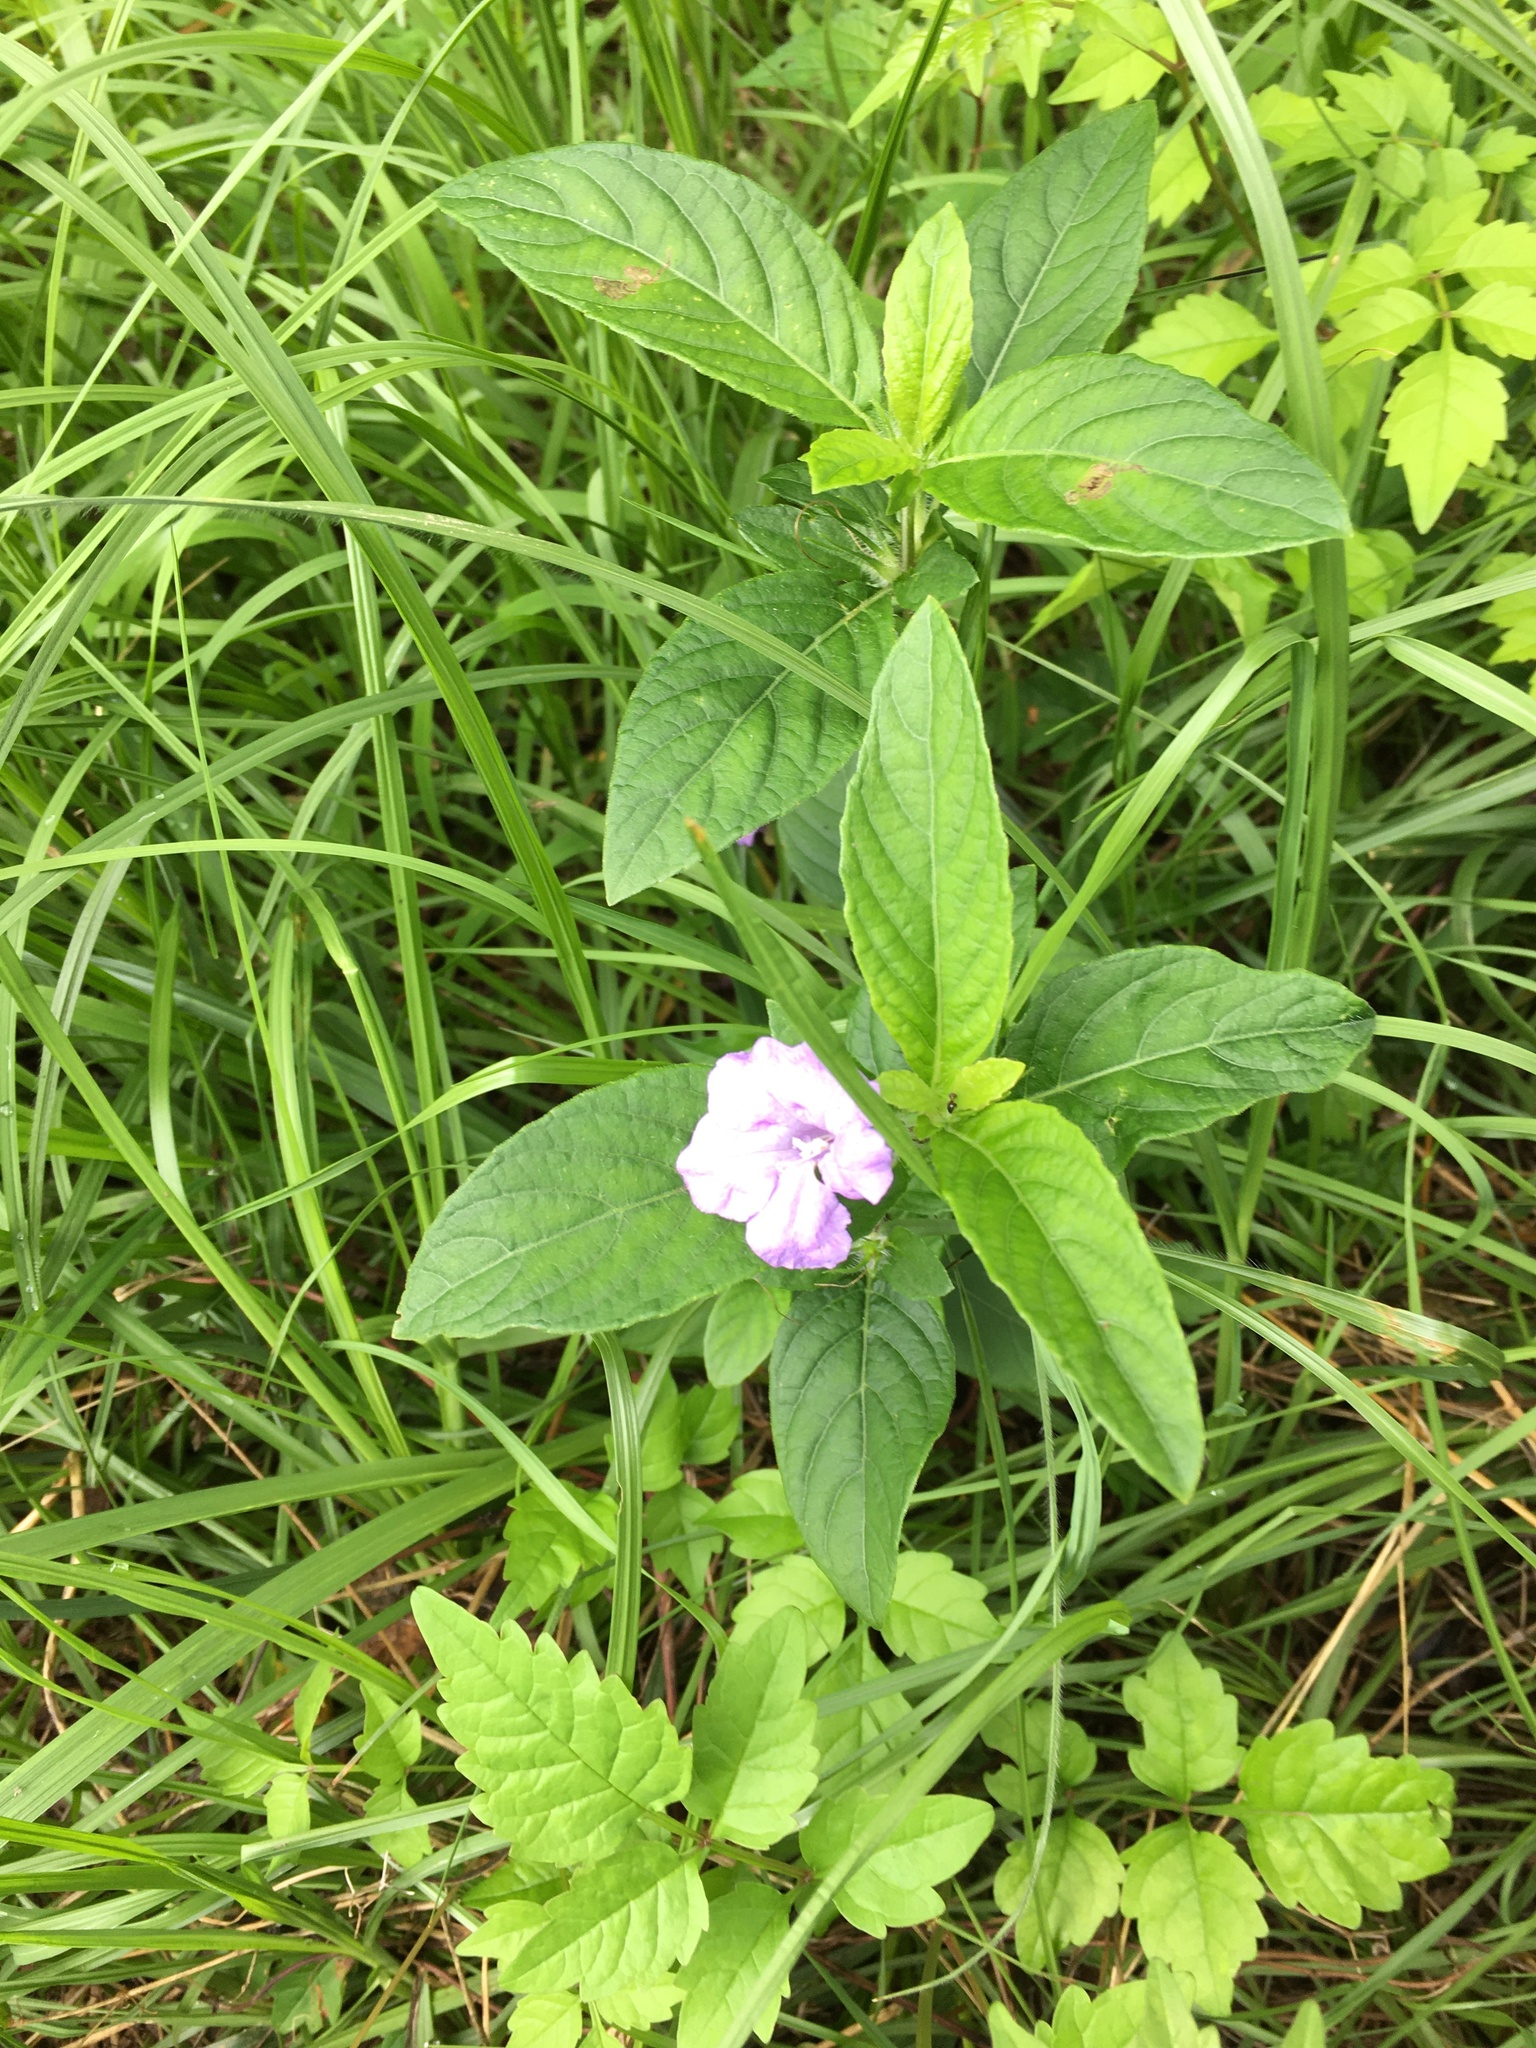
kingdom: Plantae
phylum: Tracheophyta
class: Magnoliopsida
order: Lamiales
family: Acanthaceae
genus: Ruellia
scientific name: Ruellia caroliniensis
